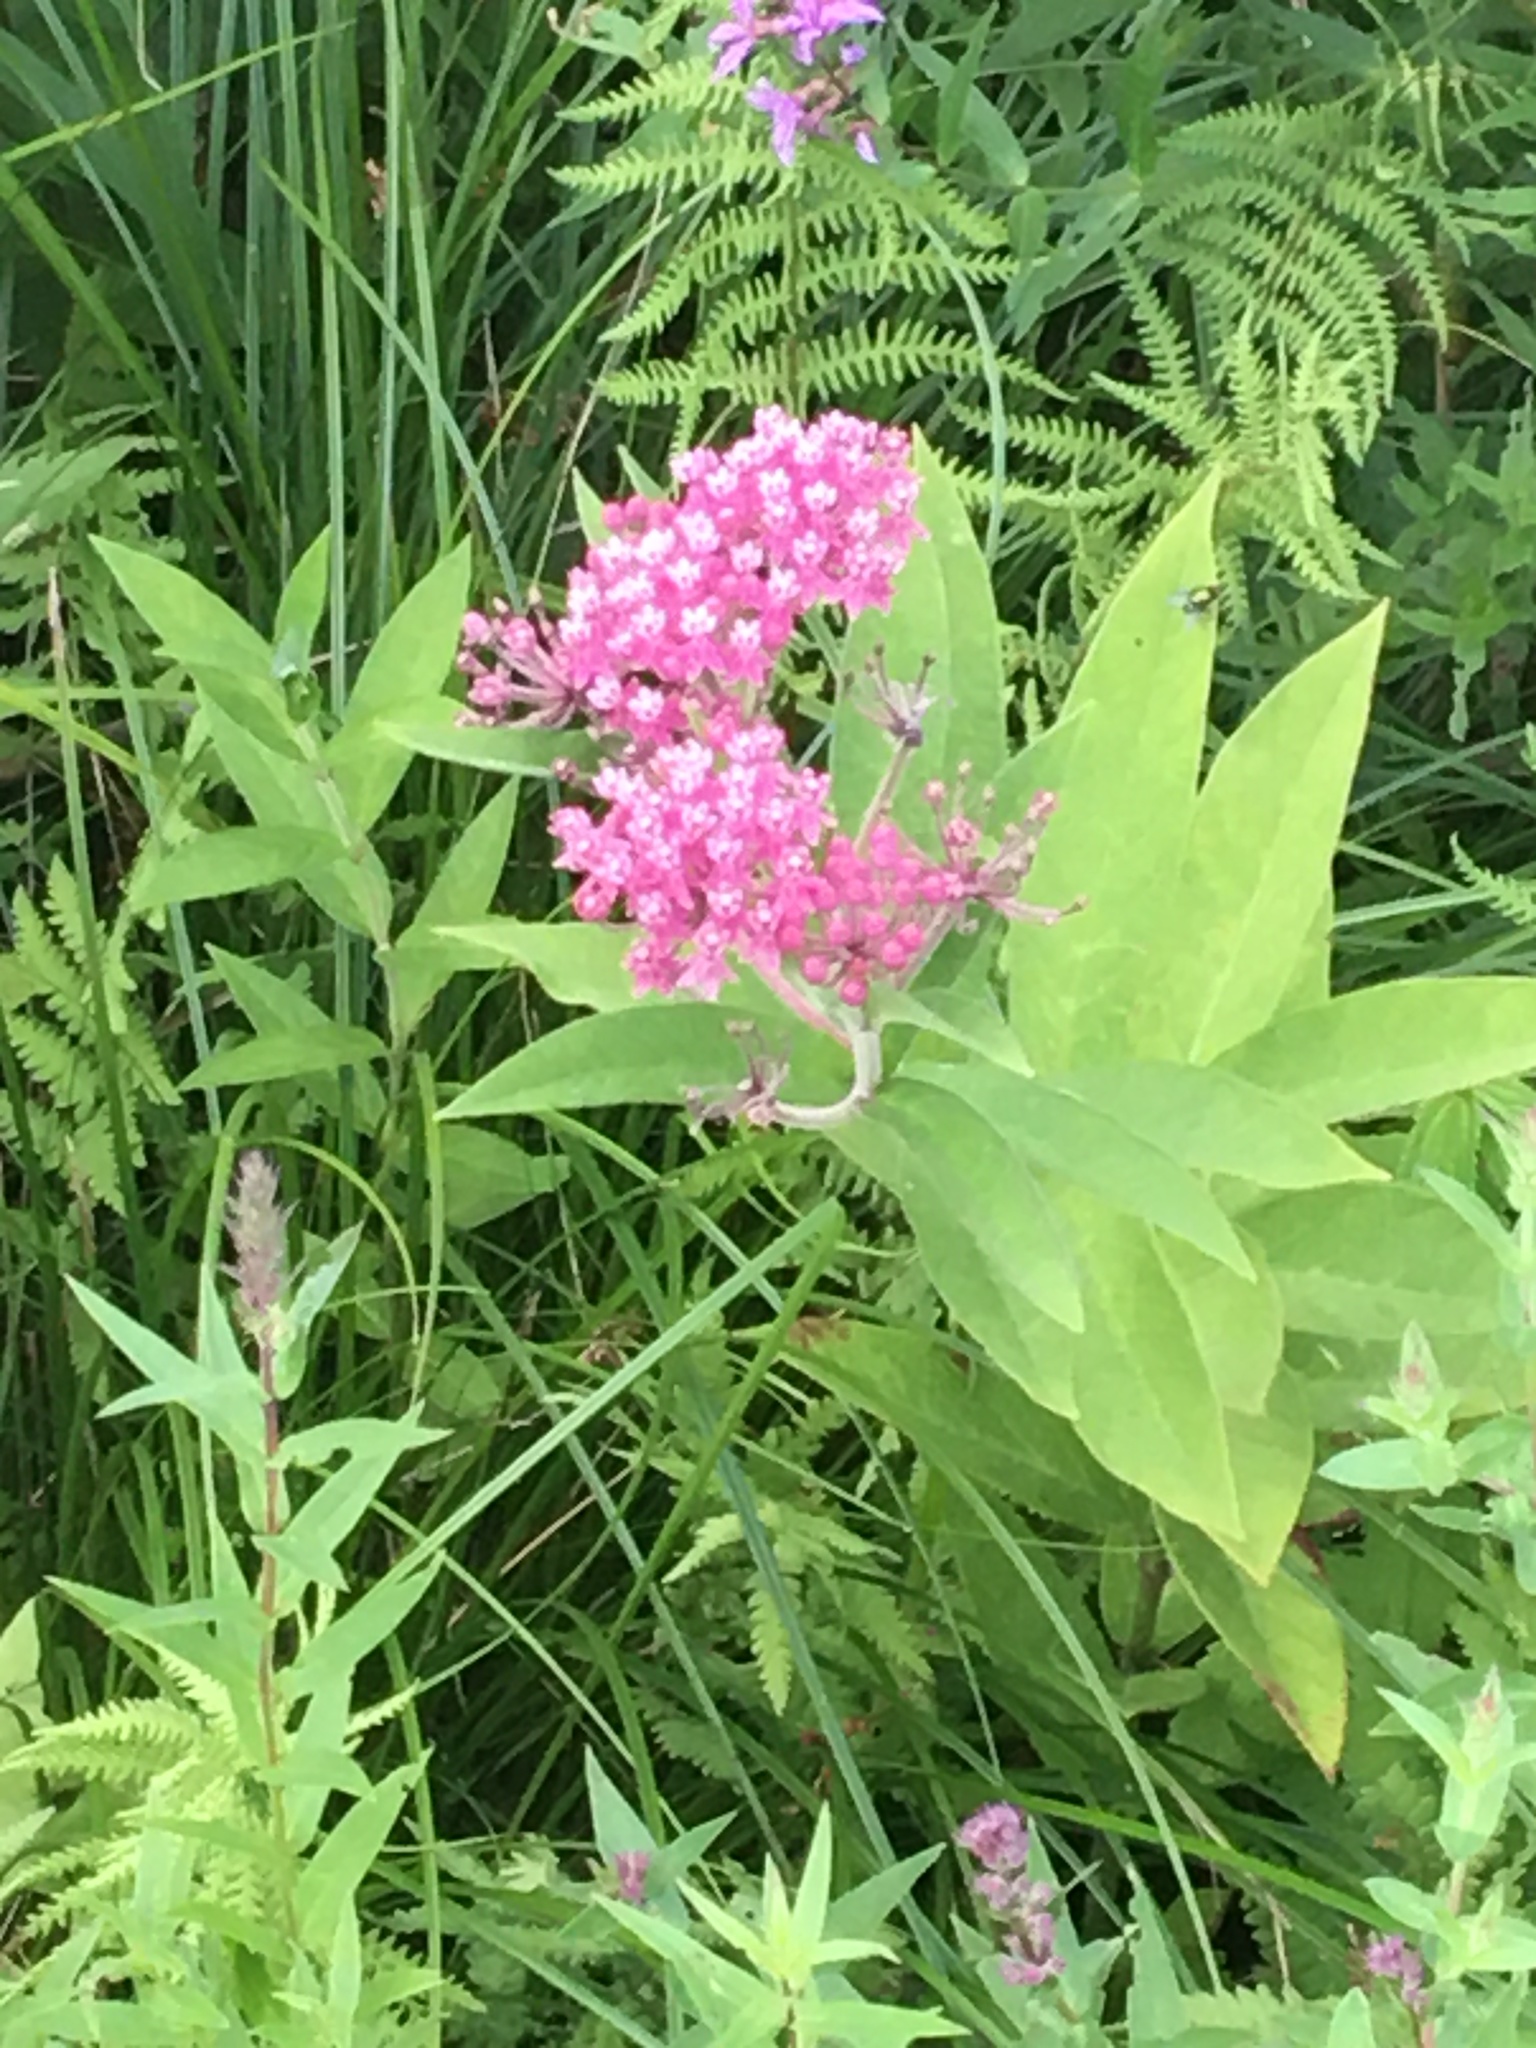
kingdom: Plantae
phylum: Tracheophyta
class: Magnoliopsida
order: Gentianales
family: Apocynaceae
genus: Asclepias
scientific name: Asclepias incarnata
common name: Swamp milkweed
